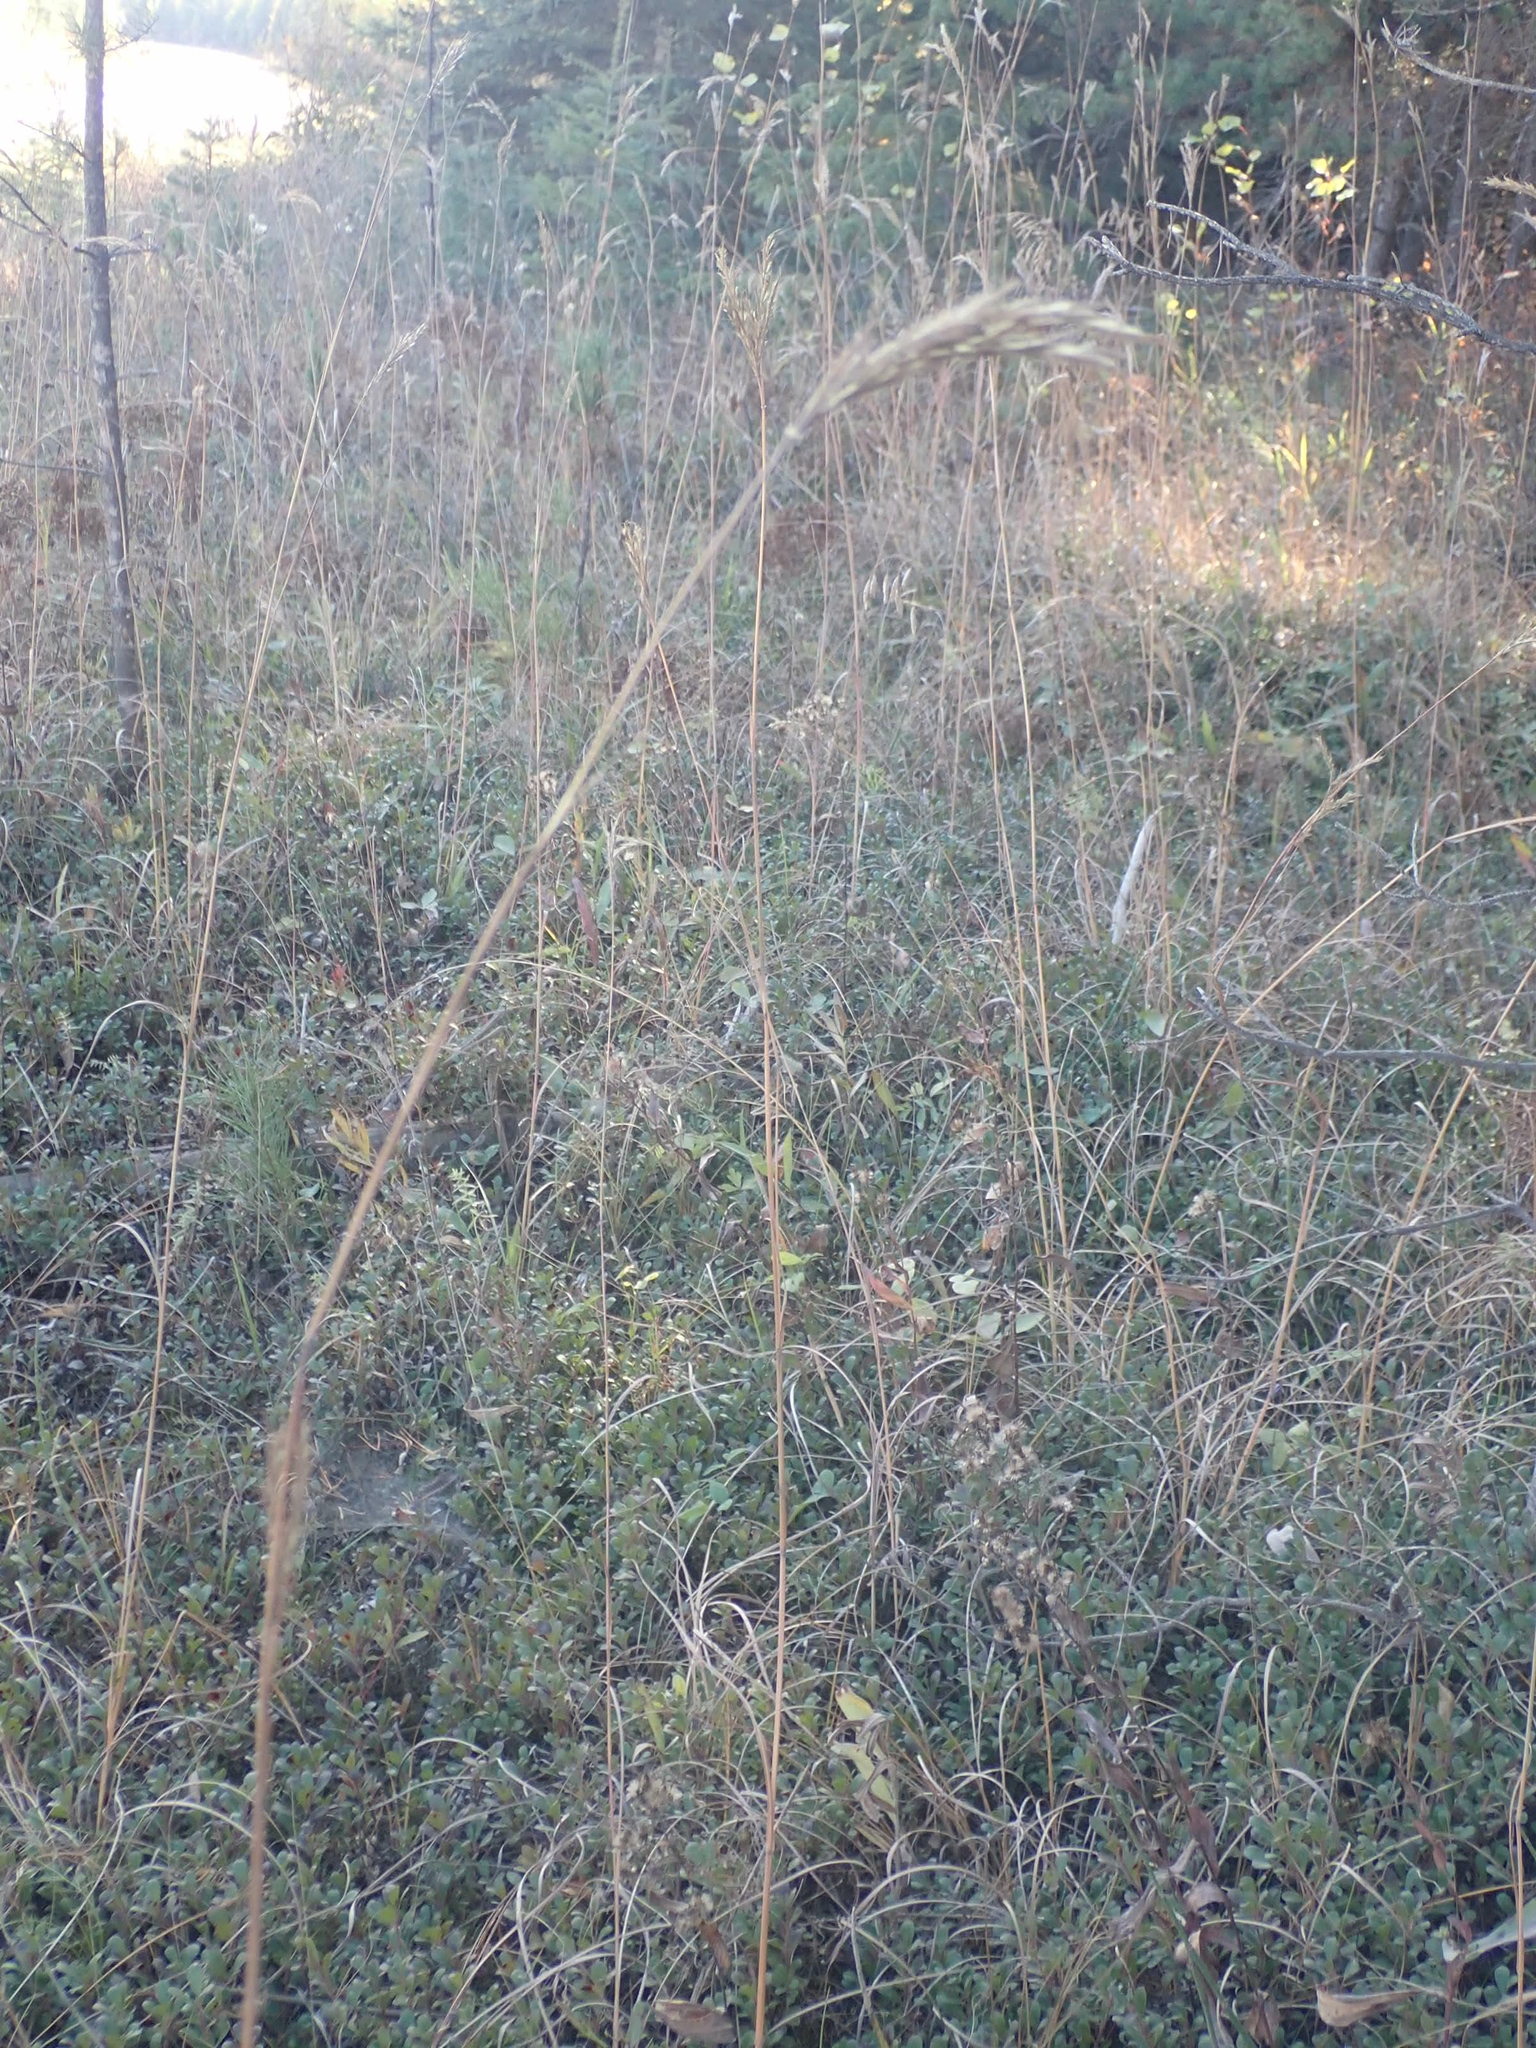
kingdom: Plantae
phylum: Tracheophyta
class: Liliopsida
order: Poales
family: Poaceae
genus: Andropogon
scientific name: Andropogon gerardi
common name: Big bluestem
